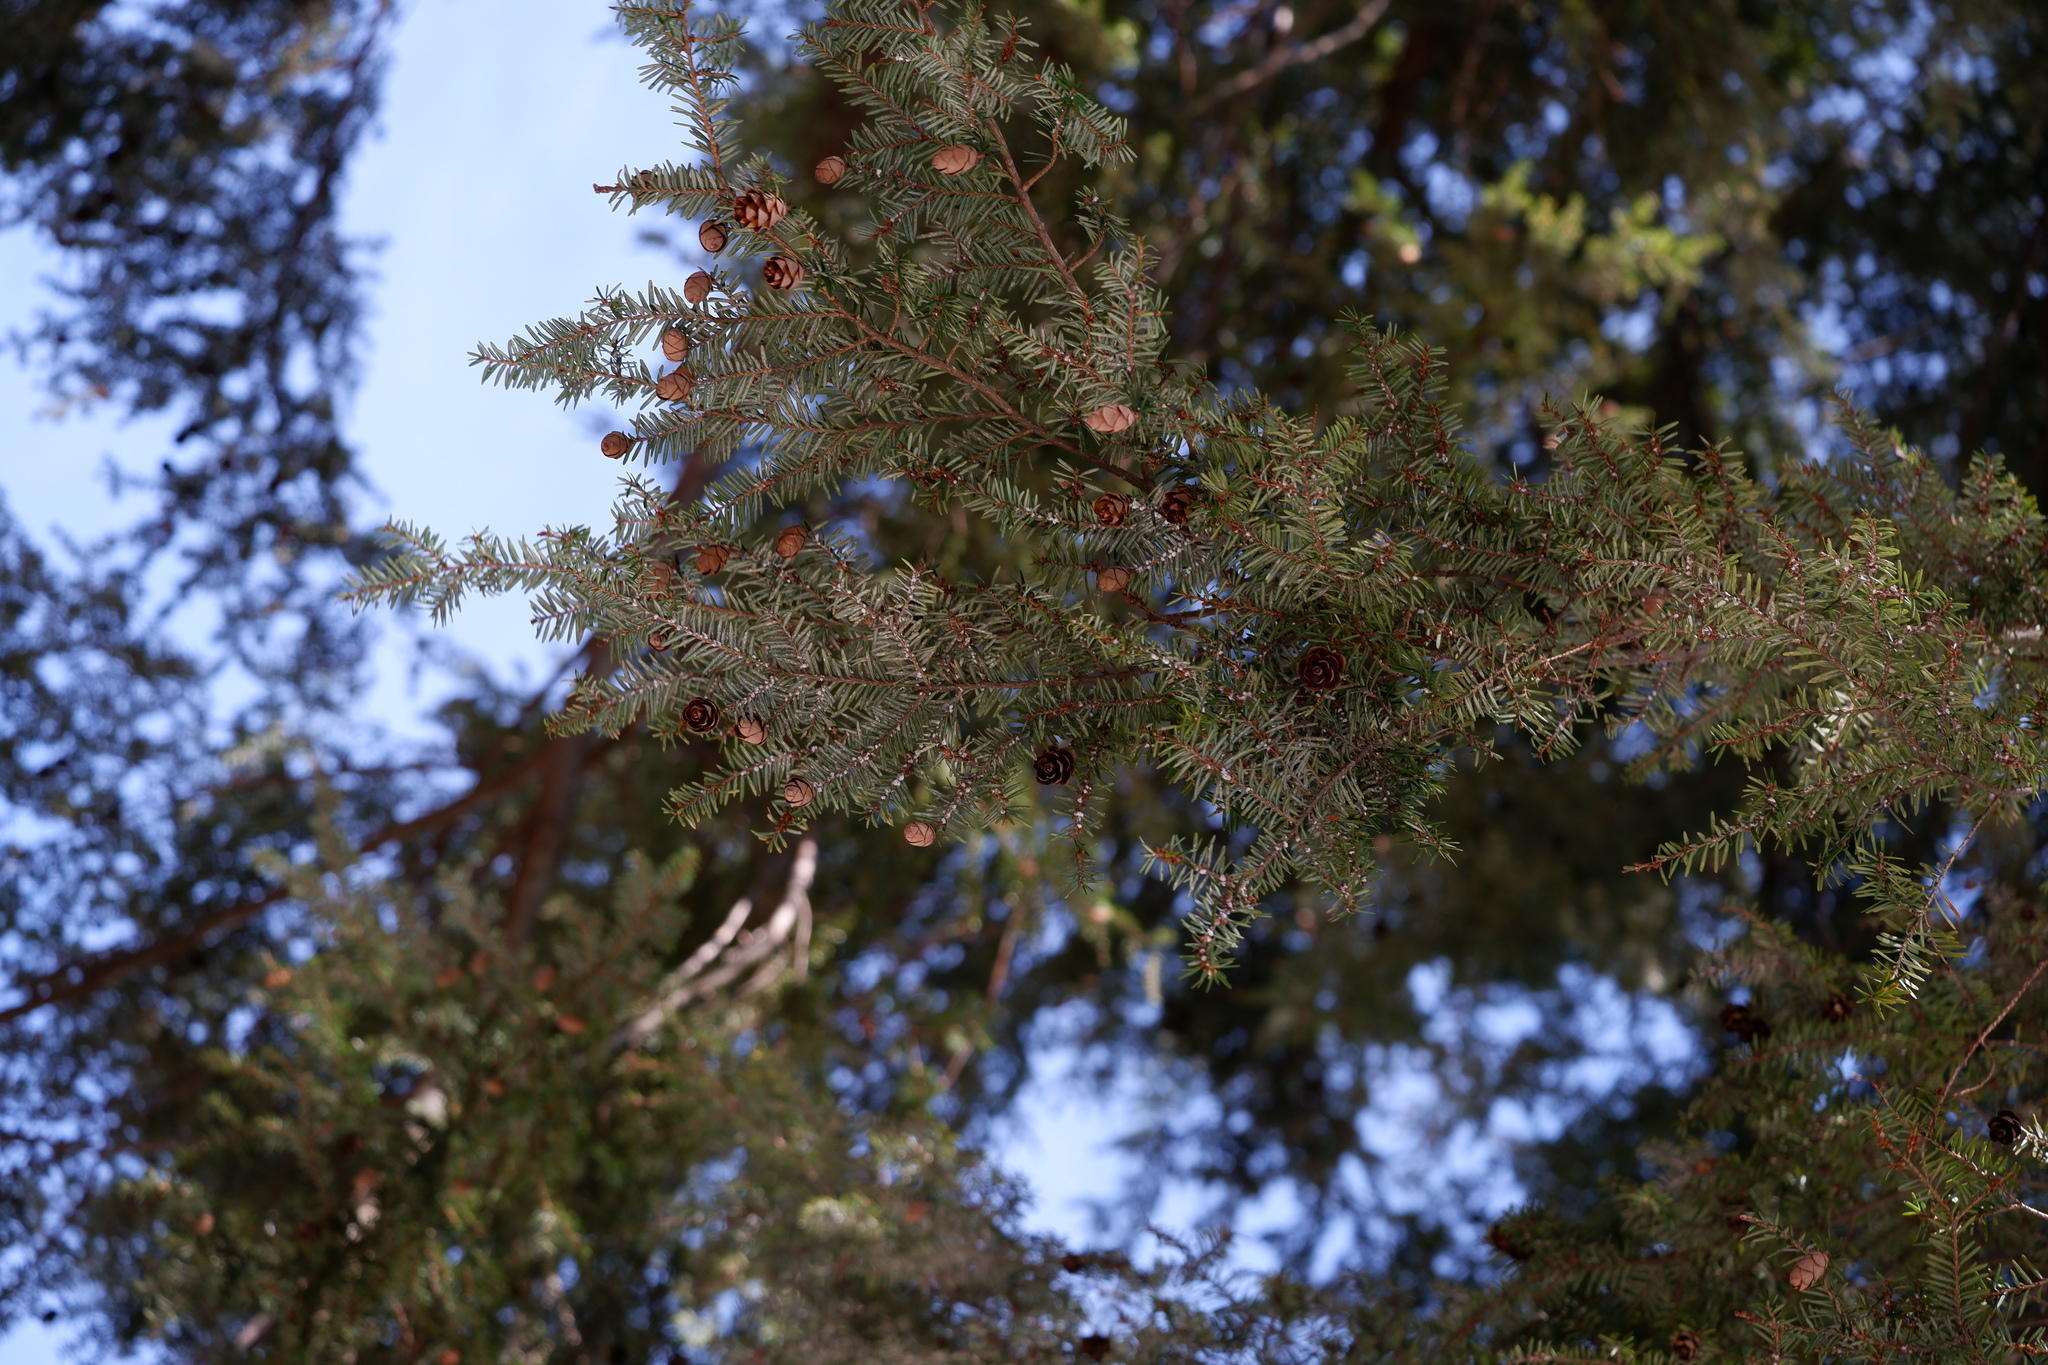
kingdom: Animalia
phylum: Arthropoda
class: Insecta
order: Hemiptera
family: Adelgidae
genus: Adelges
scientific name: Adelges tsugae
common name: Hemlock woolly adelgid
